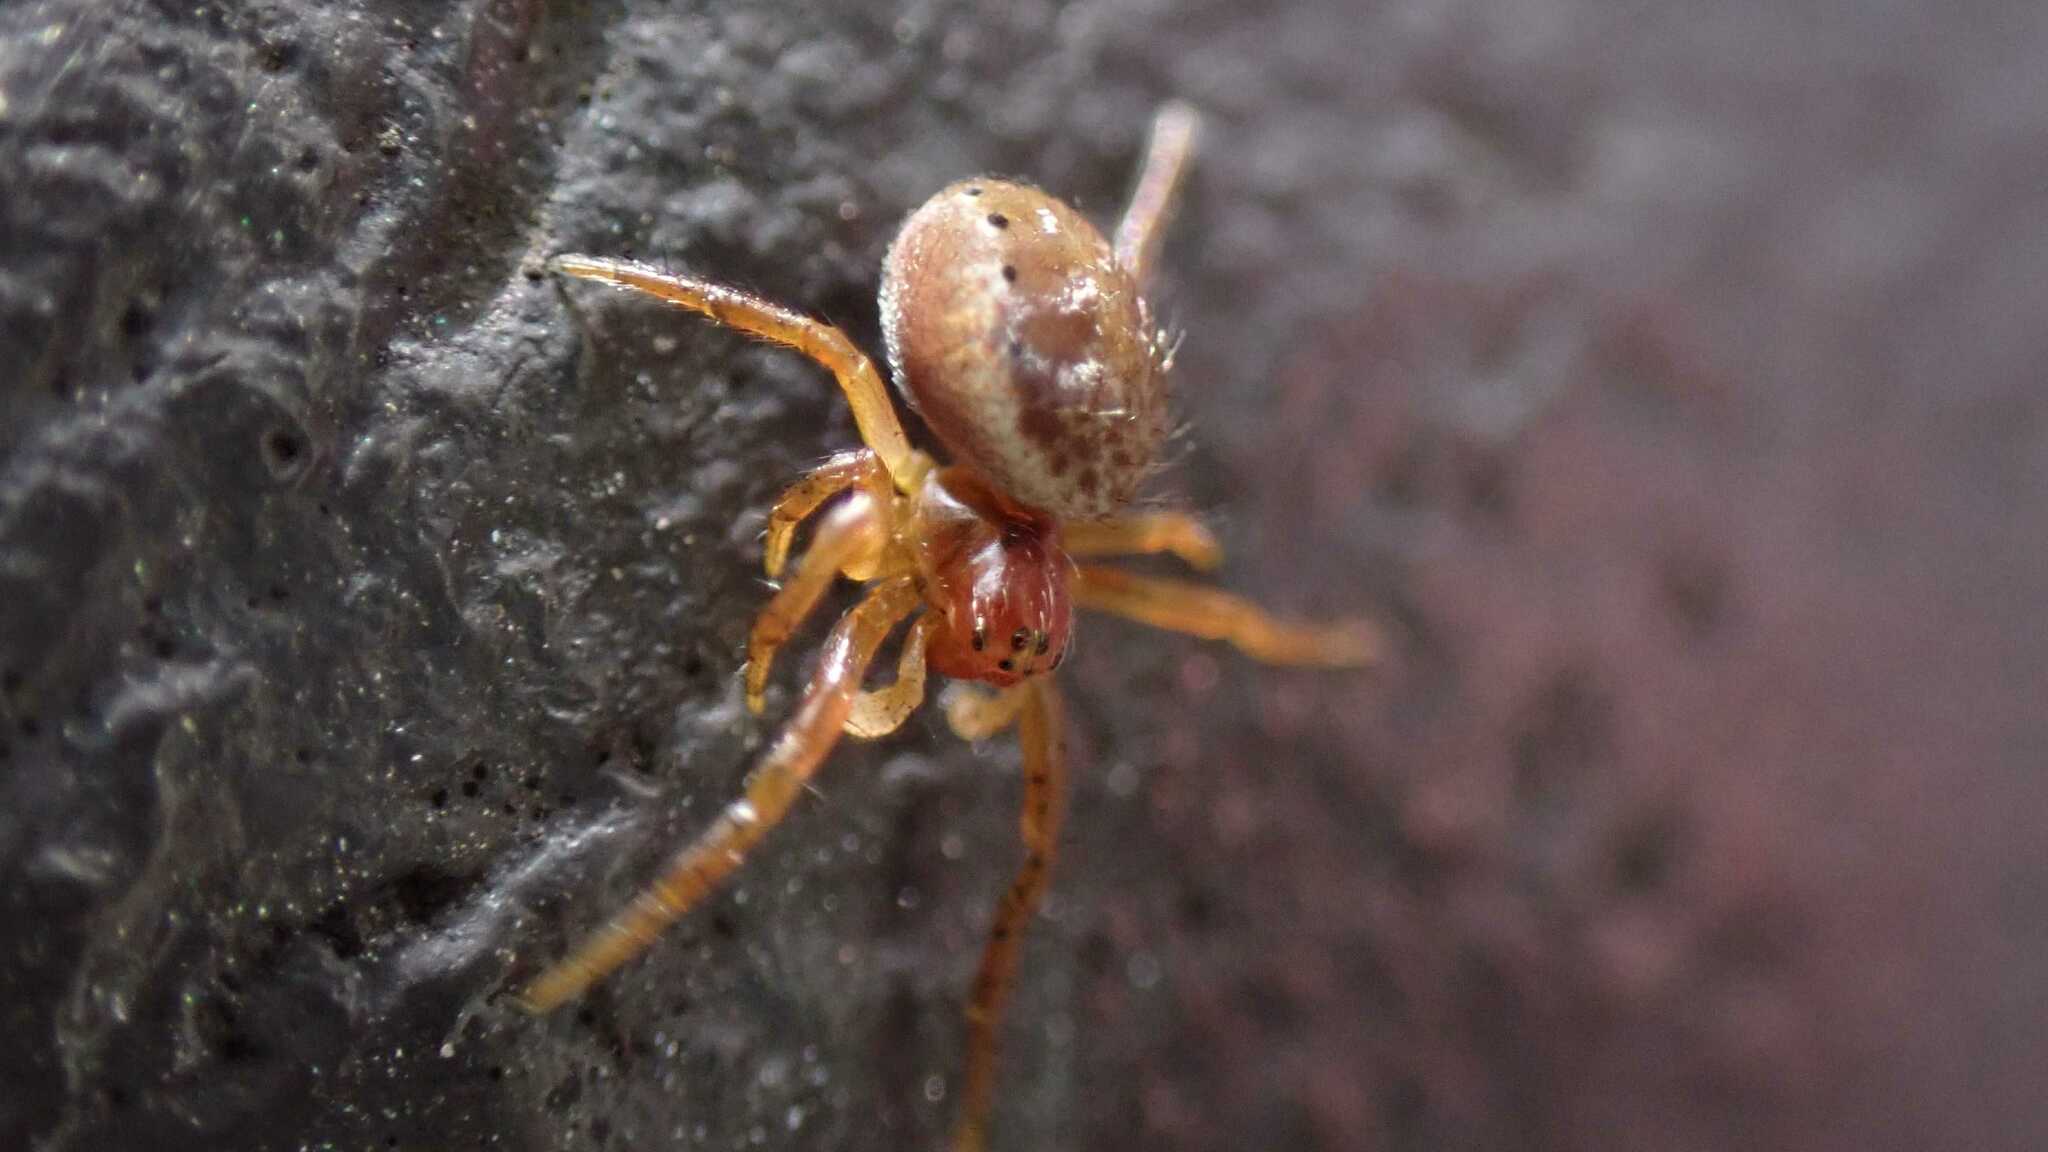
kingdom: Animalia
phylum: Arthropoda
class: Arachnida
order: Araneae
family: Araneidae
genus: Araniella
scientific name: Araniella
